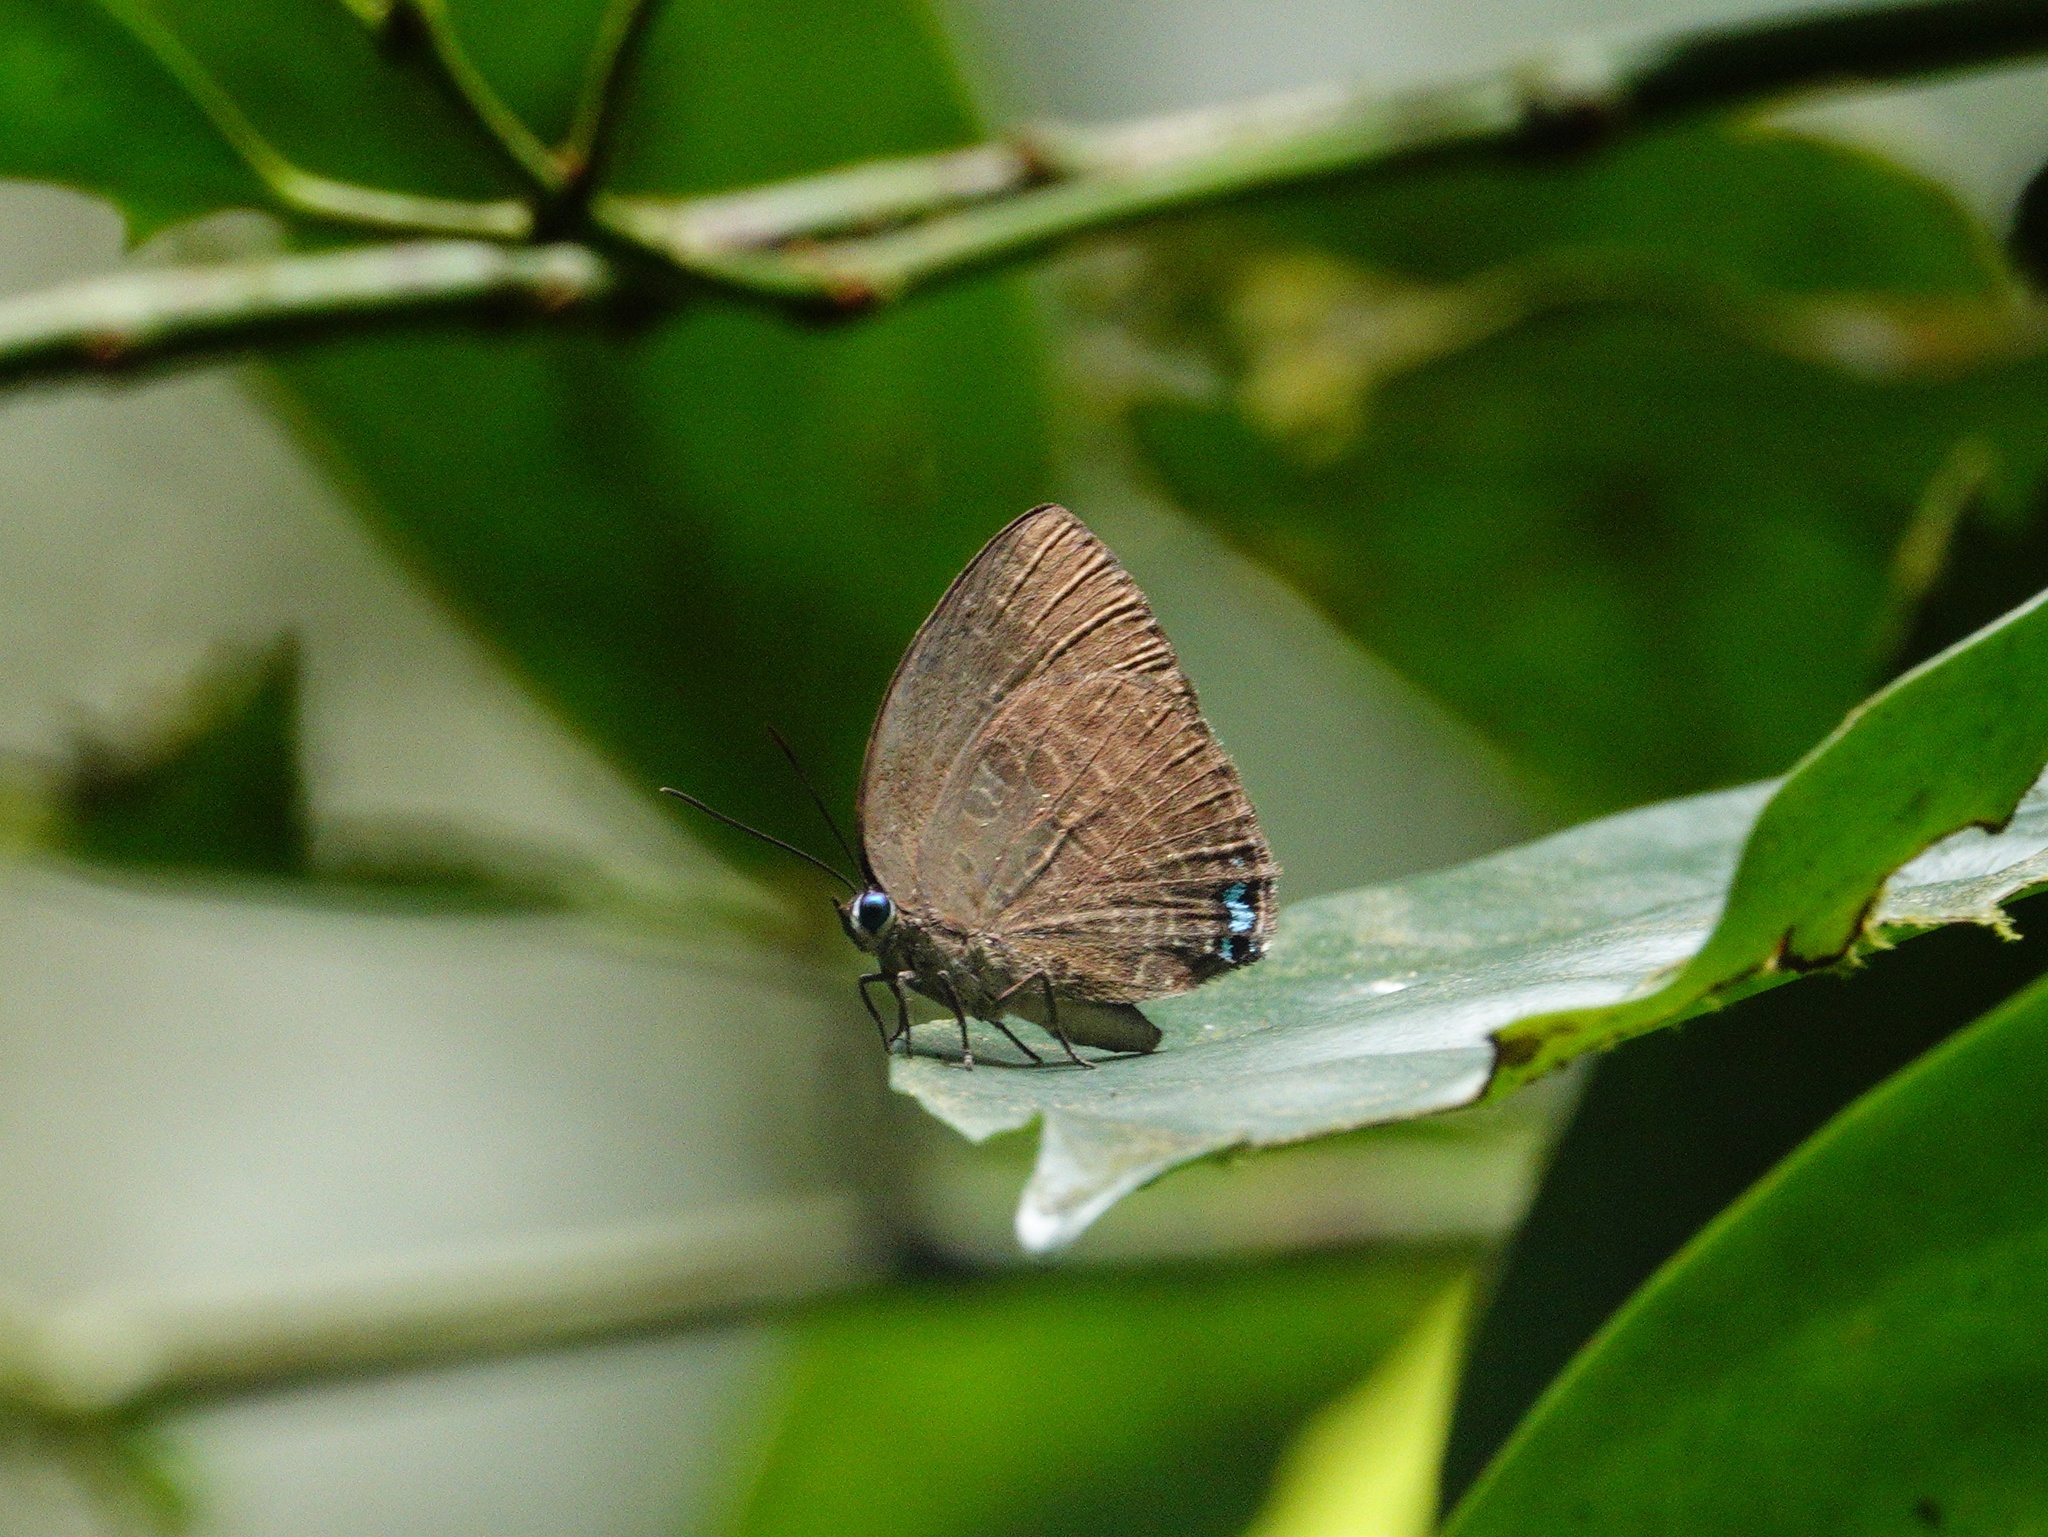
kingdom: Animalia
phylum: Arthropoda
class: Insecta
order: Lepidoptera
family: Lycaenidae
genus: Arhopala
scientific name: Arhopala epimuta
